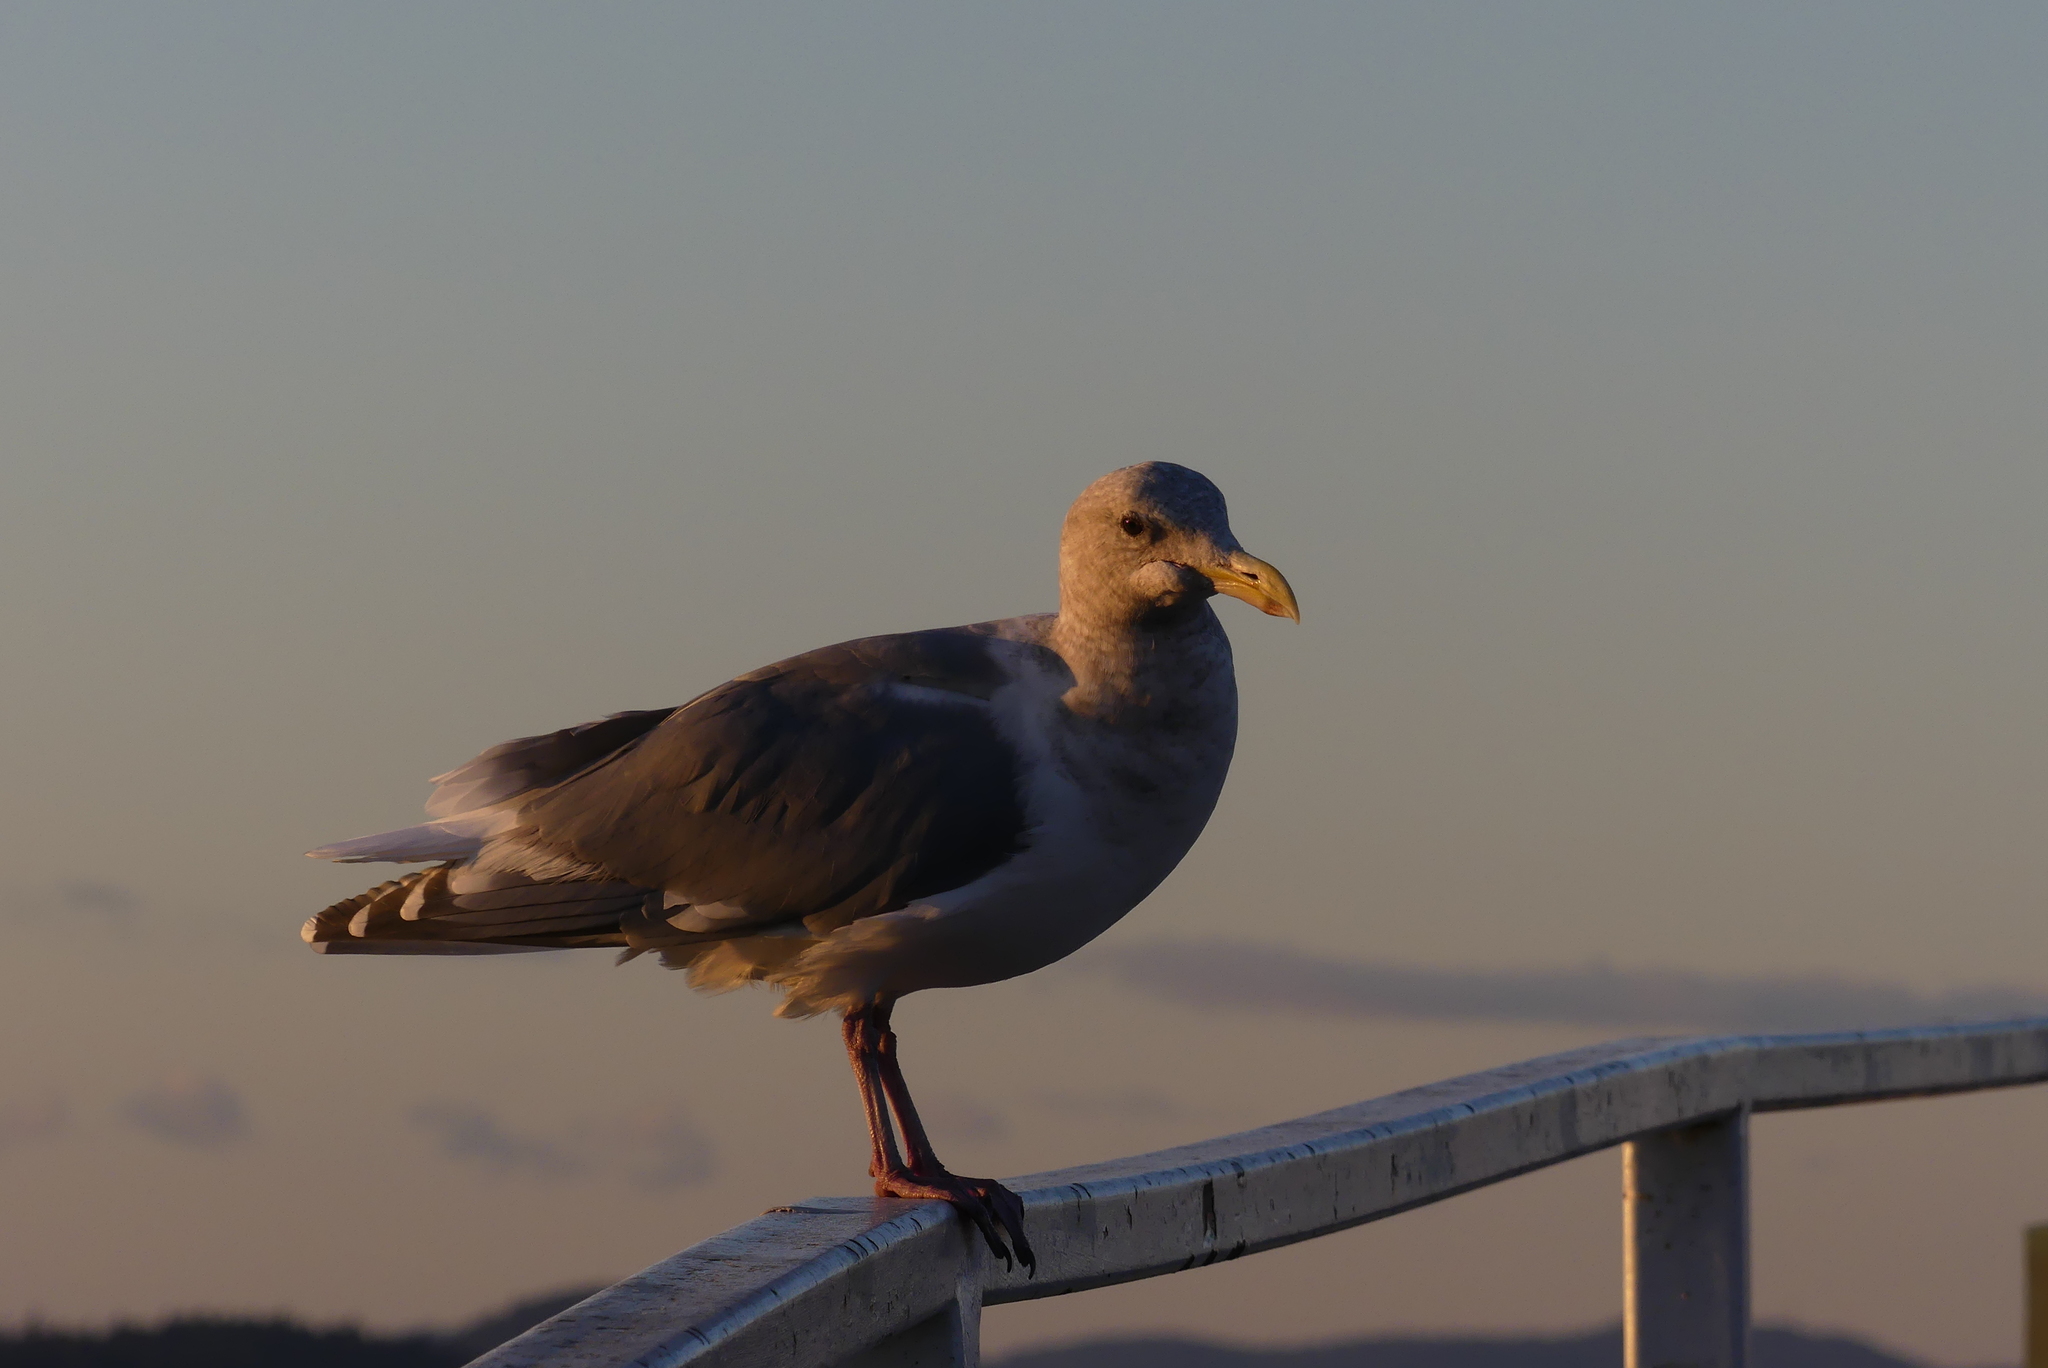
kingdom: Animalia
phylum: Chordata
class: Aves
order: Charadriiformes
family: Laridae
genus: Larus
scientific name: Larus
